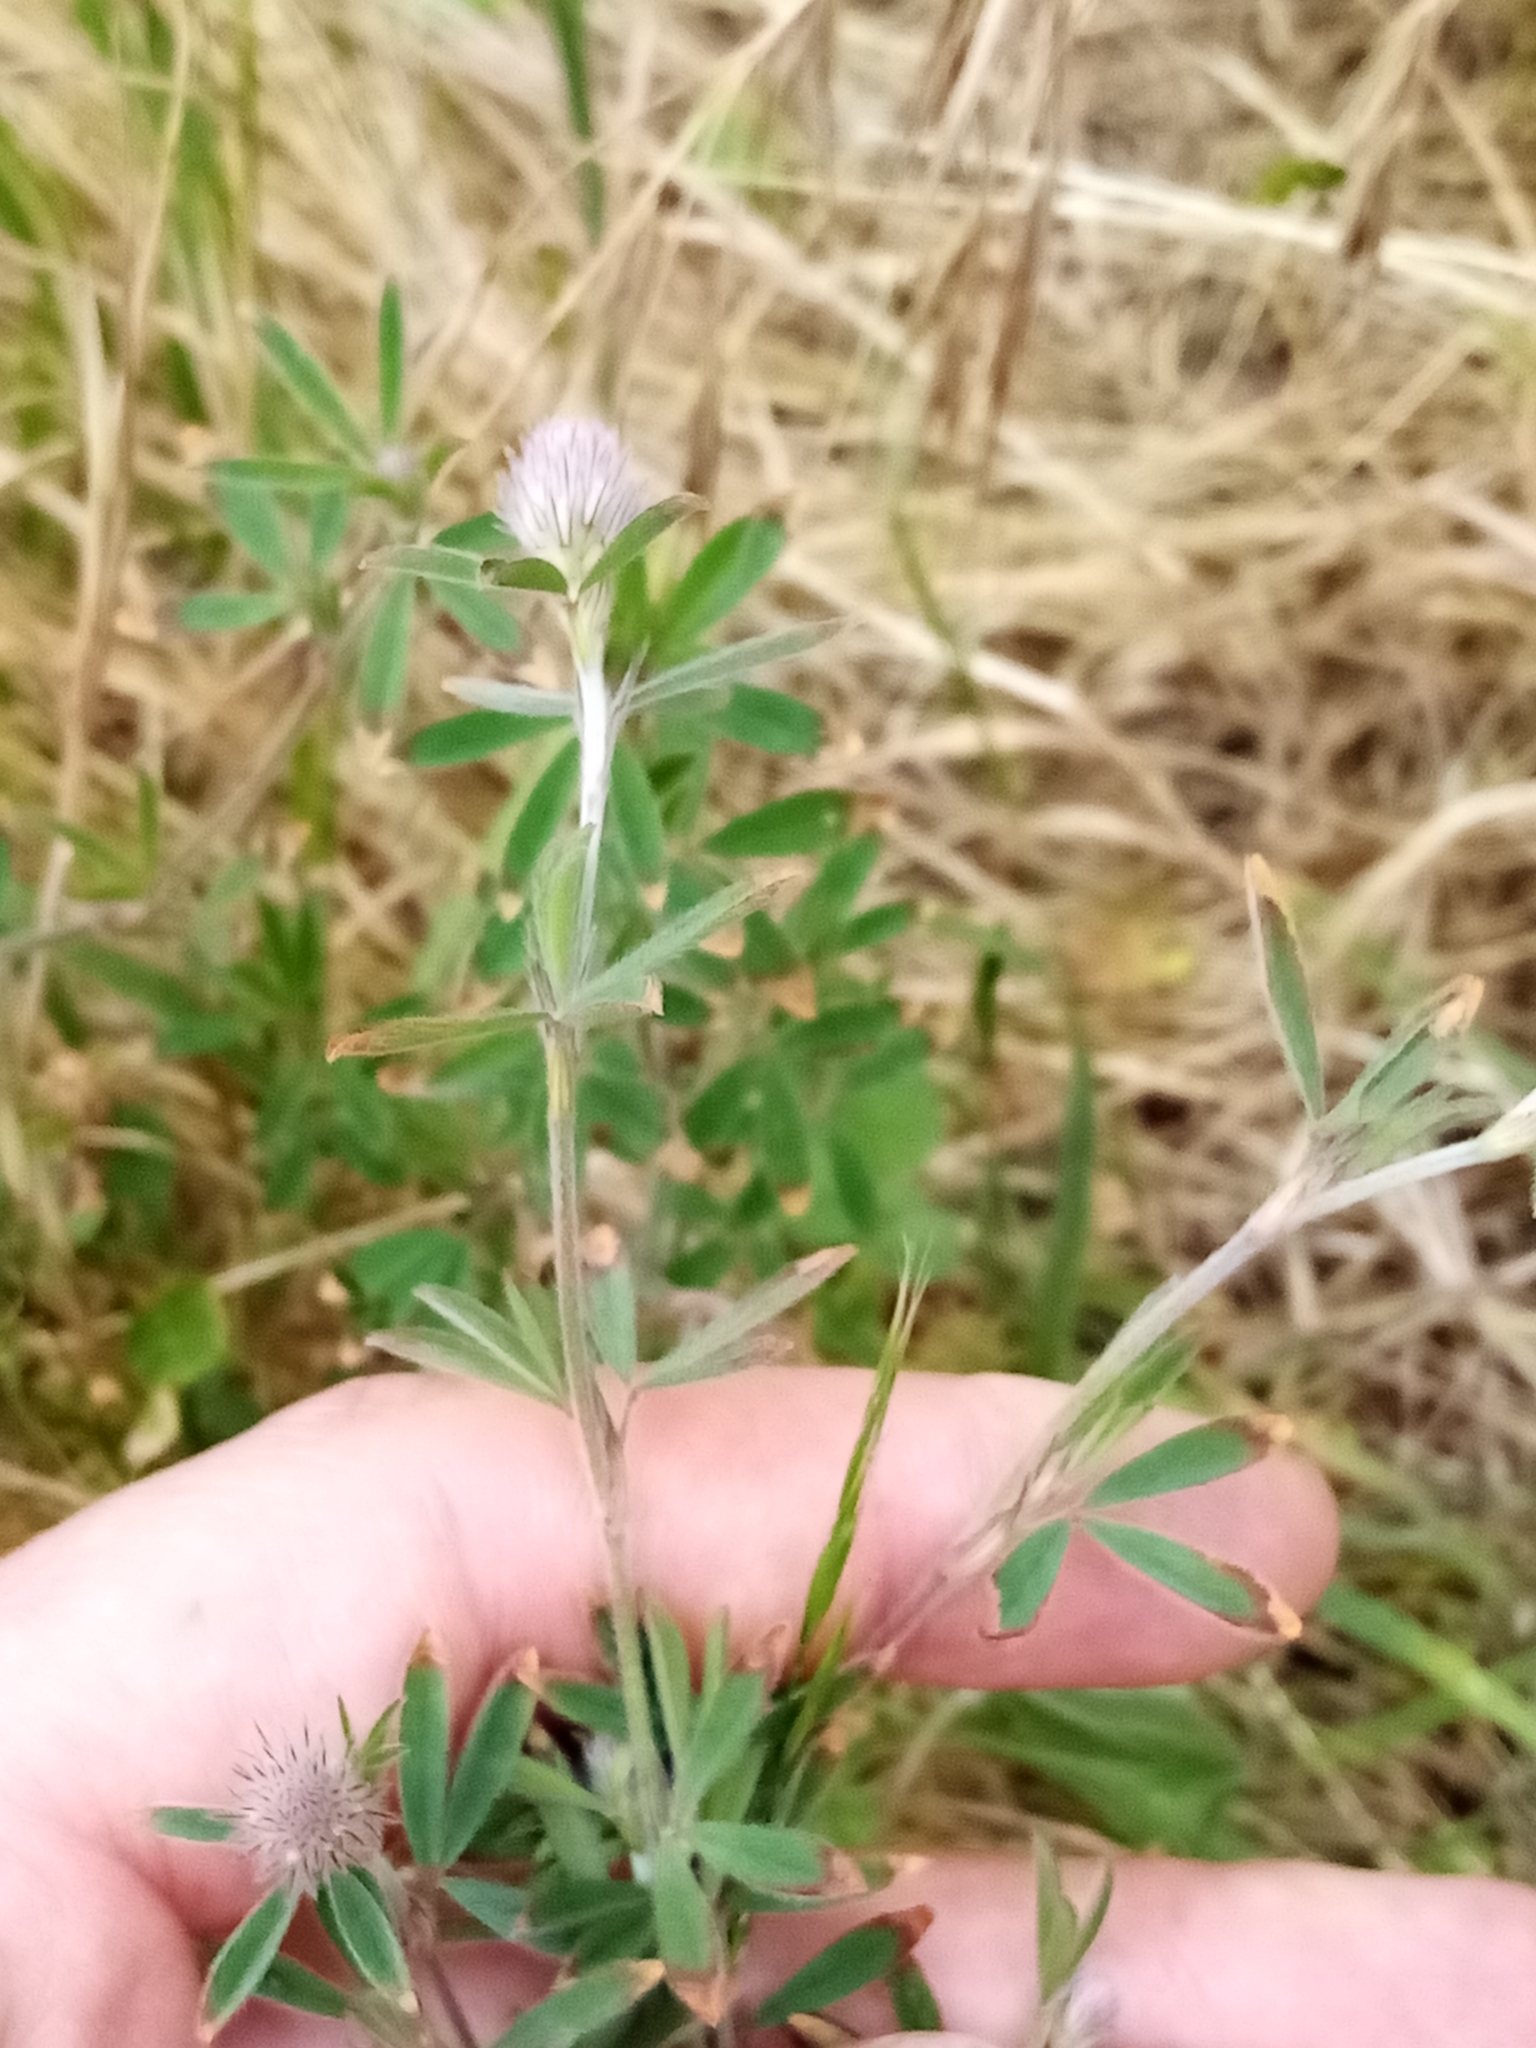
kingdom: Plantae
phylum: Tracheophyta
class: Magnoliopsida
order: Fabales
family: Fabaceae
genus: Trifolium
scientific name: Trifolium arvense
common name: Hare's-foot clover
